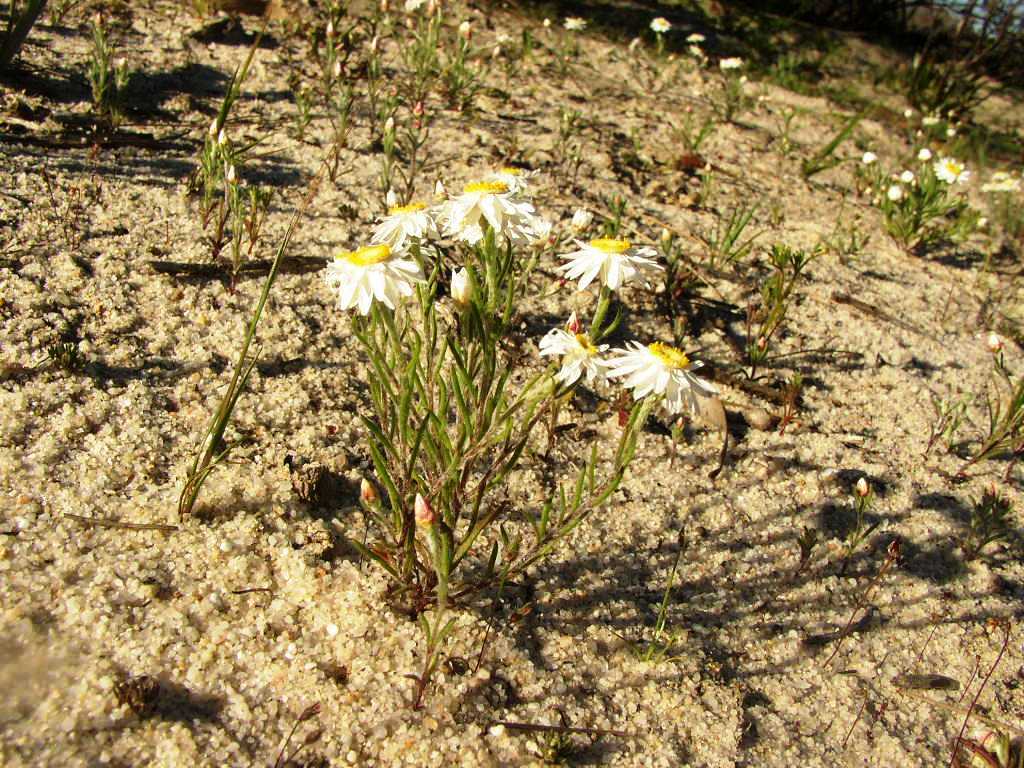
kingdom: Plantae
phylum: Tracheophyta
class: Magnoliopsida
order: Asterales
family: Asteraceae
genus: Hyalosperma
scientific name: Hyalosperma cotula
